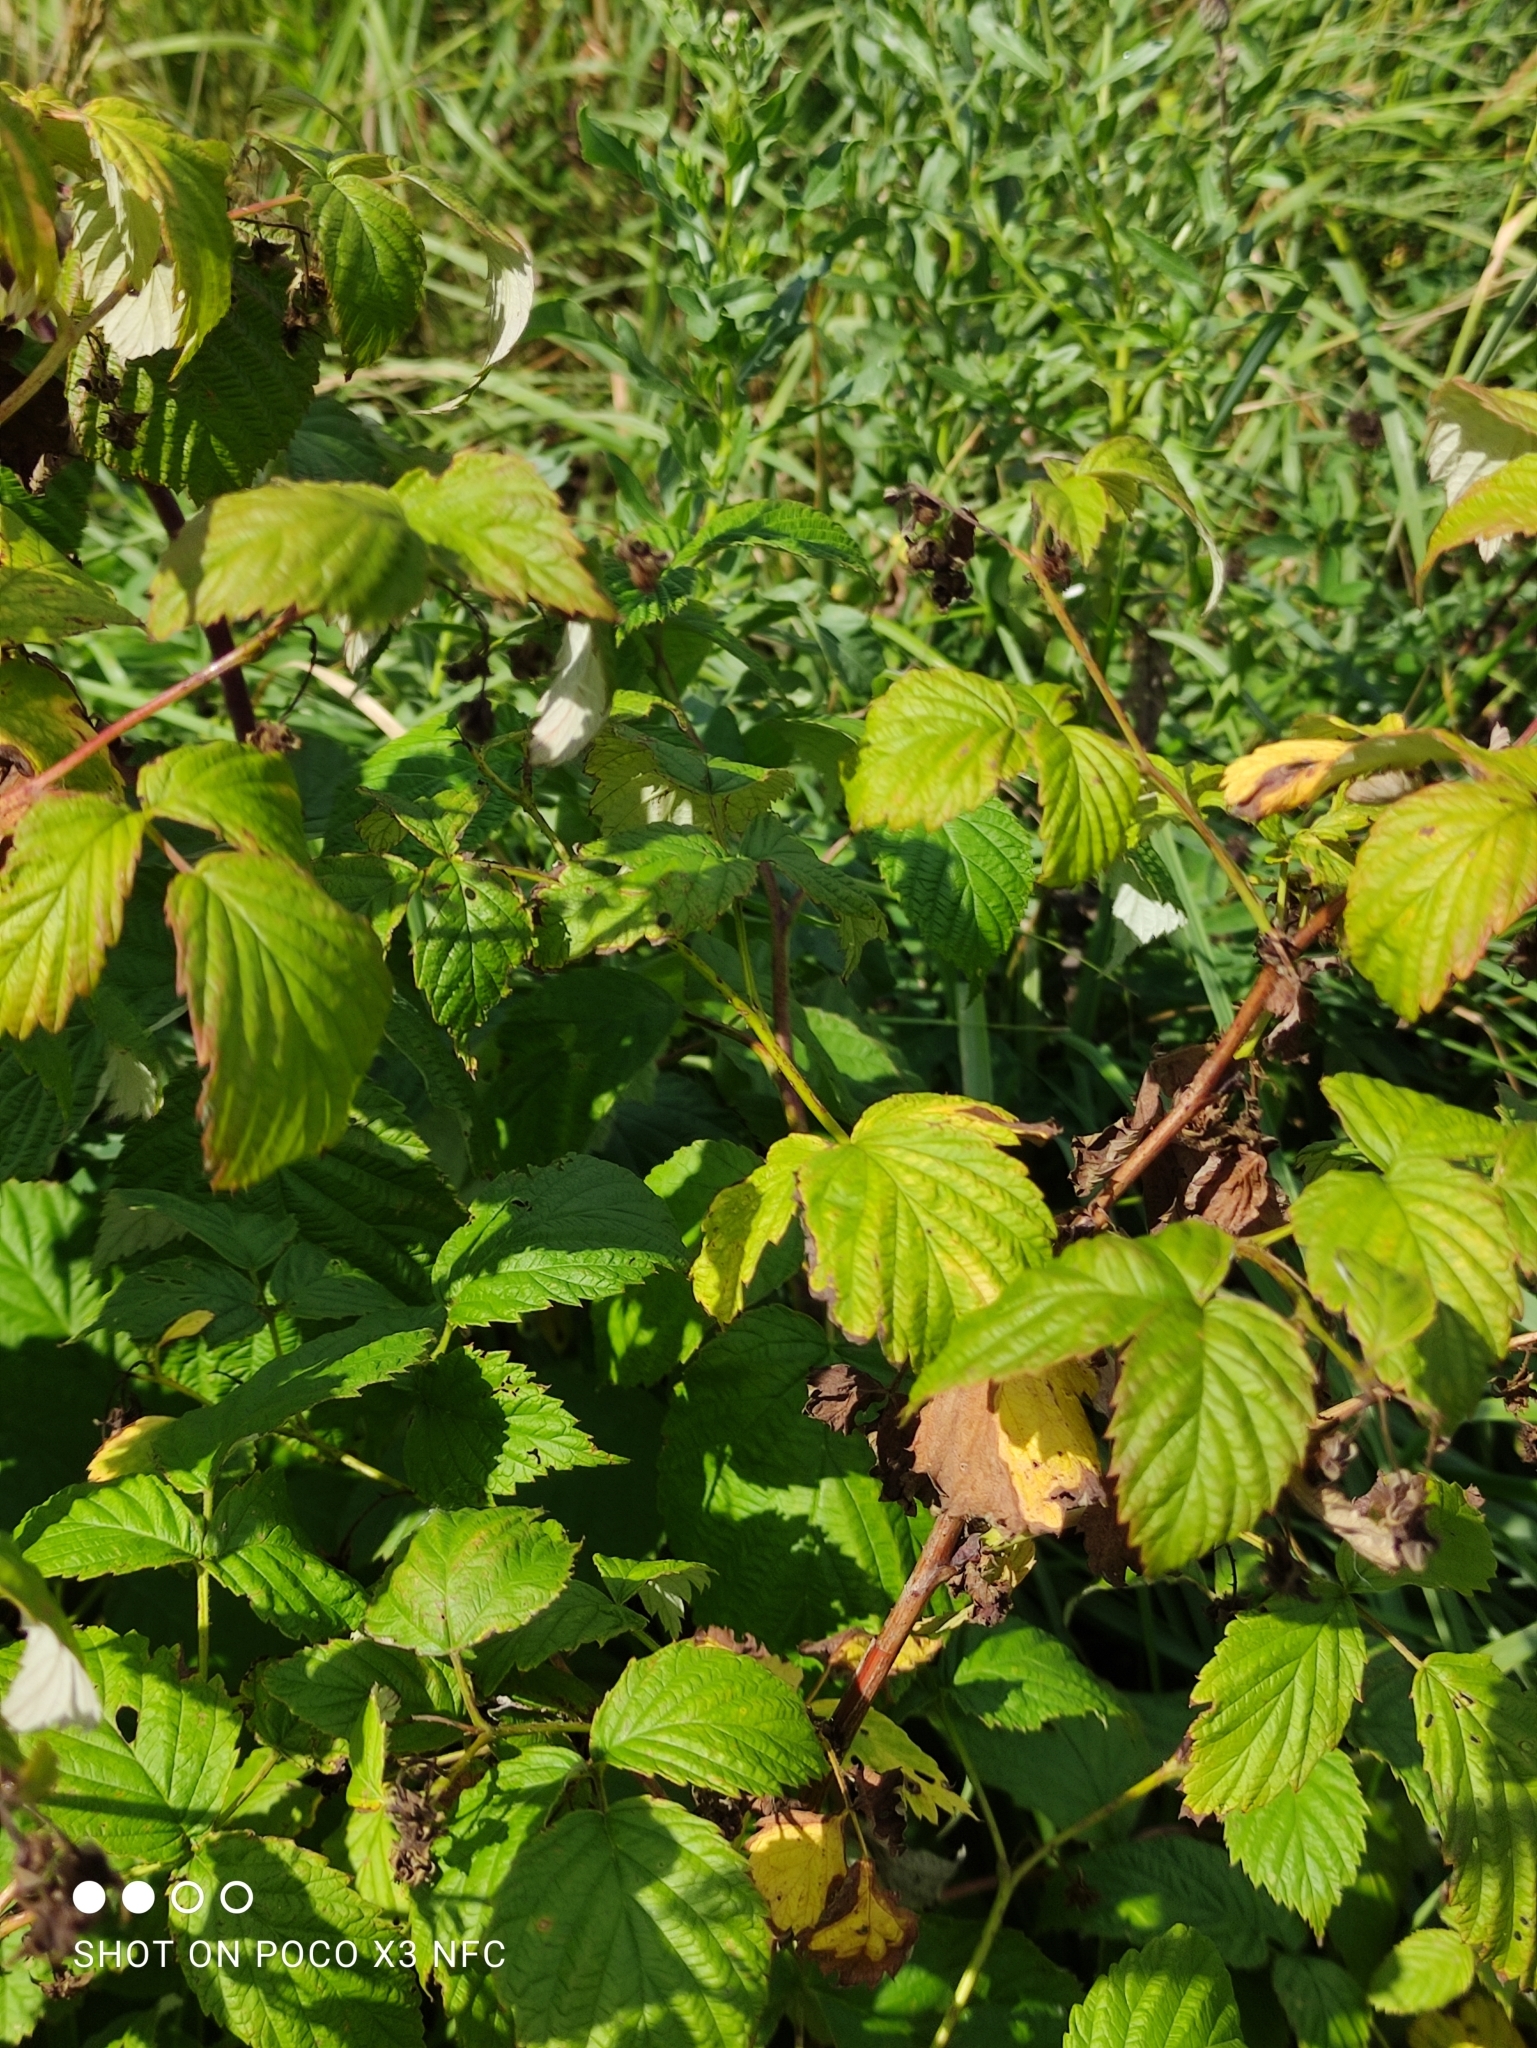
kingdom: Plantae
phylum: Tracheophyta
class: Magnoliopsida
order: Rosales
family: Rosaceae
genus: Rubus
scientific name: Rubus idaeus
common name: Raspberry
